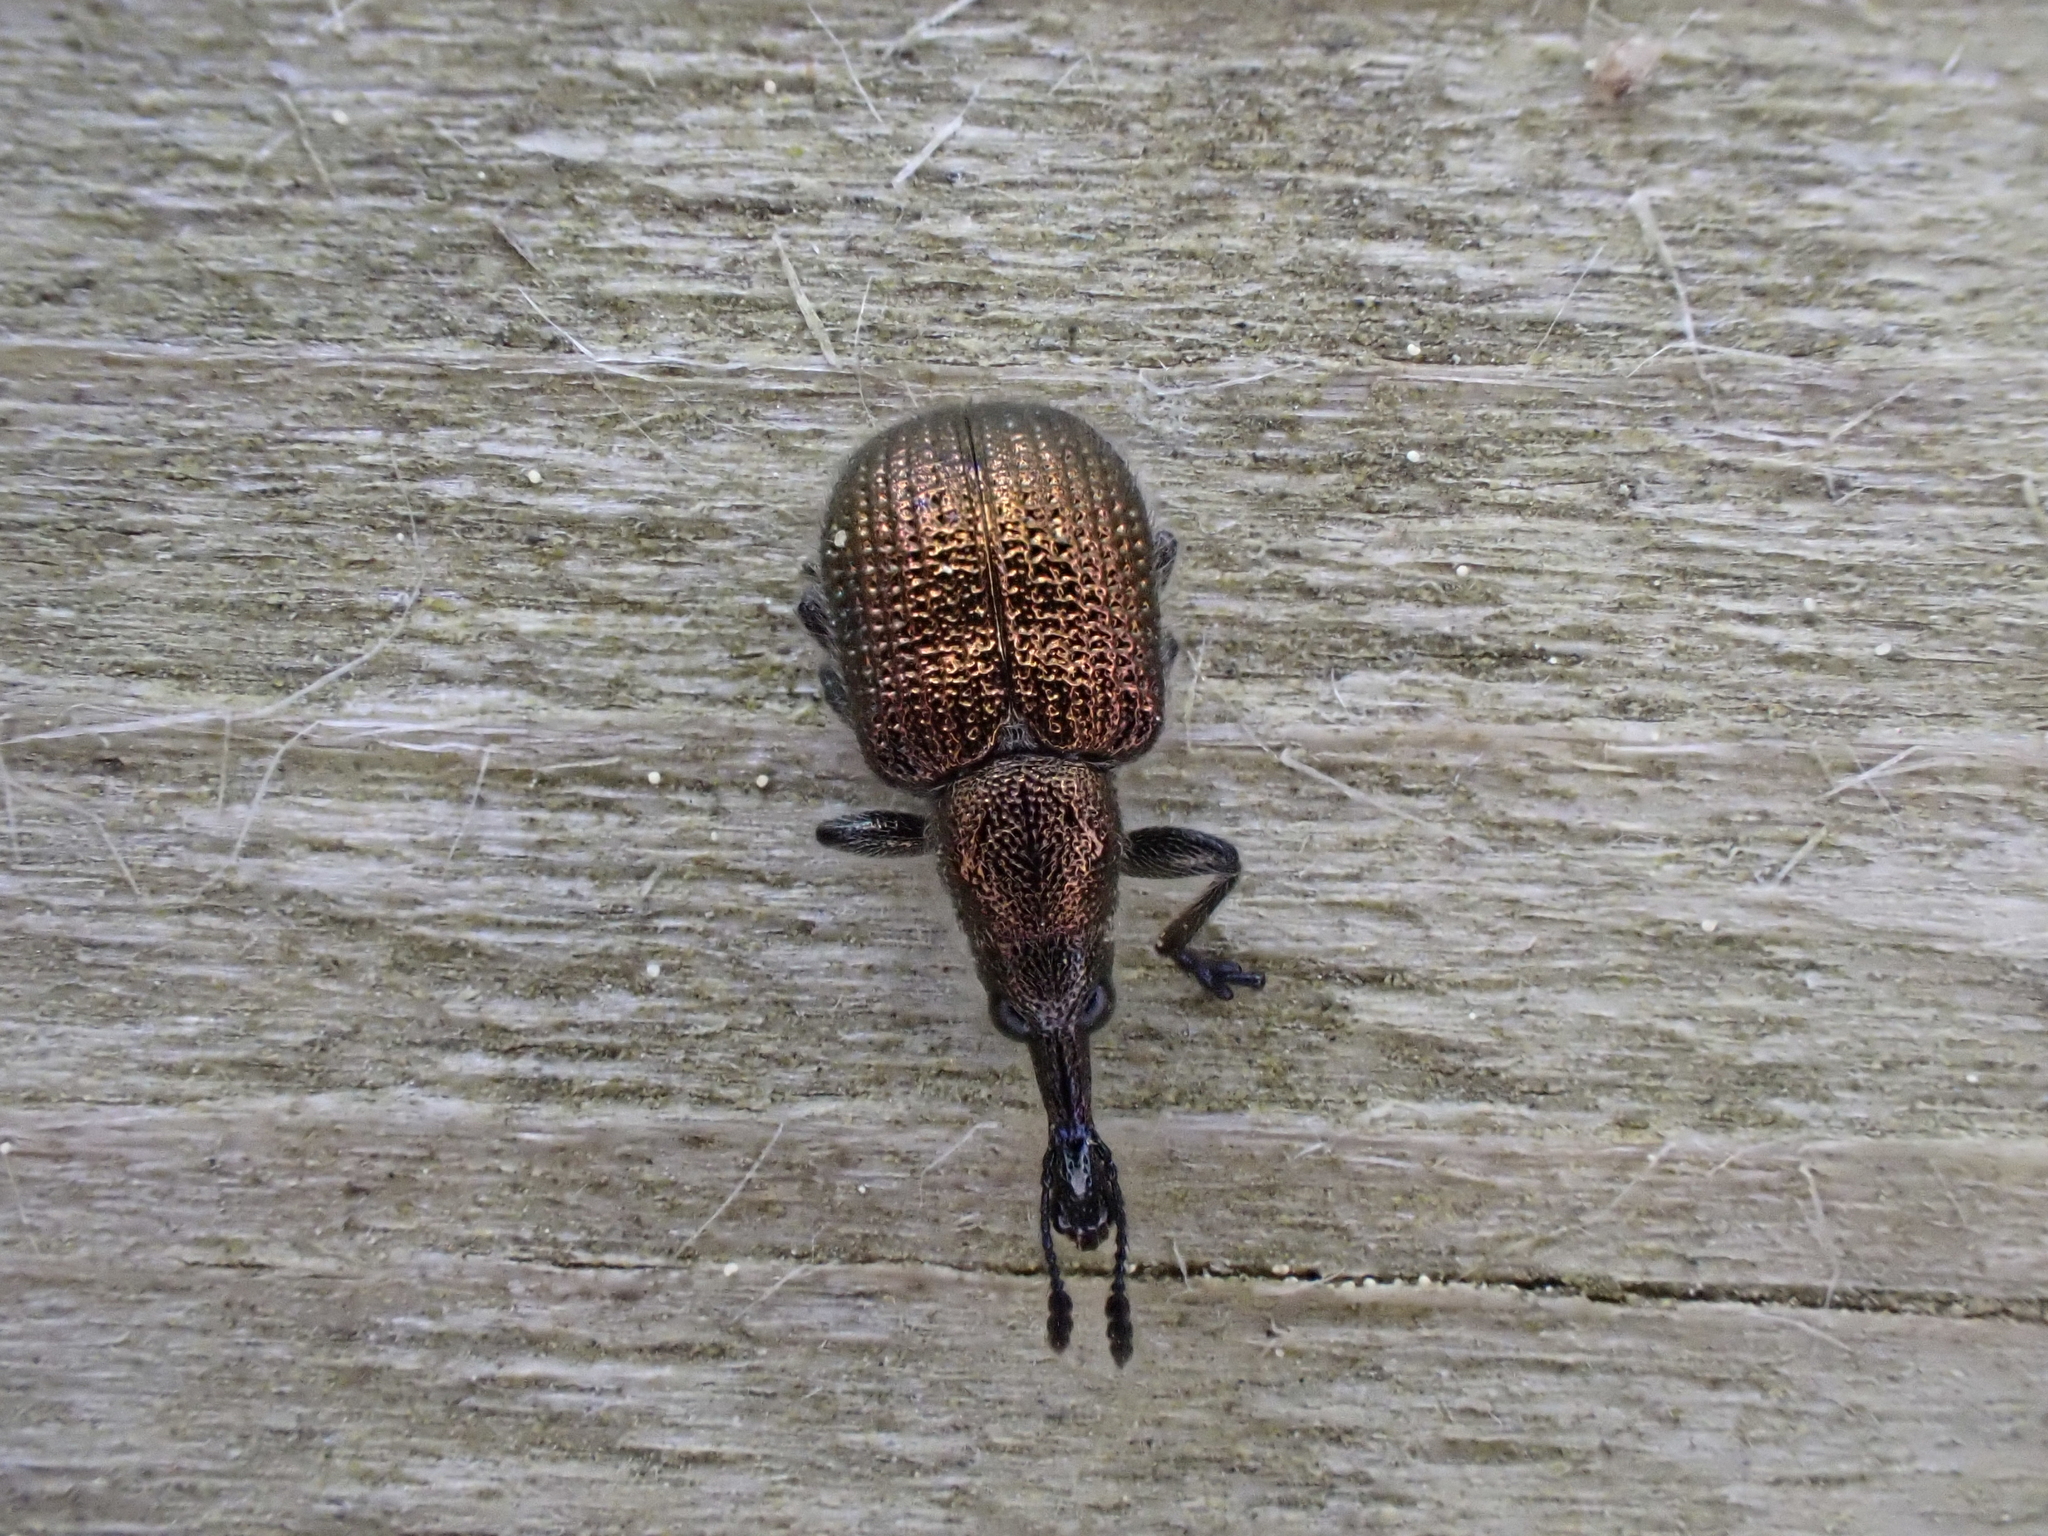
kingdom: Animalia
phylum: Arthropoda
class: Insecta
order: Coleoptera
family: Attelabidae
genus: Involvulus
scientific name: Involvulus cupreus
